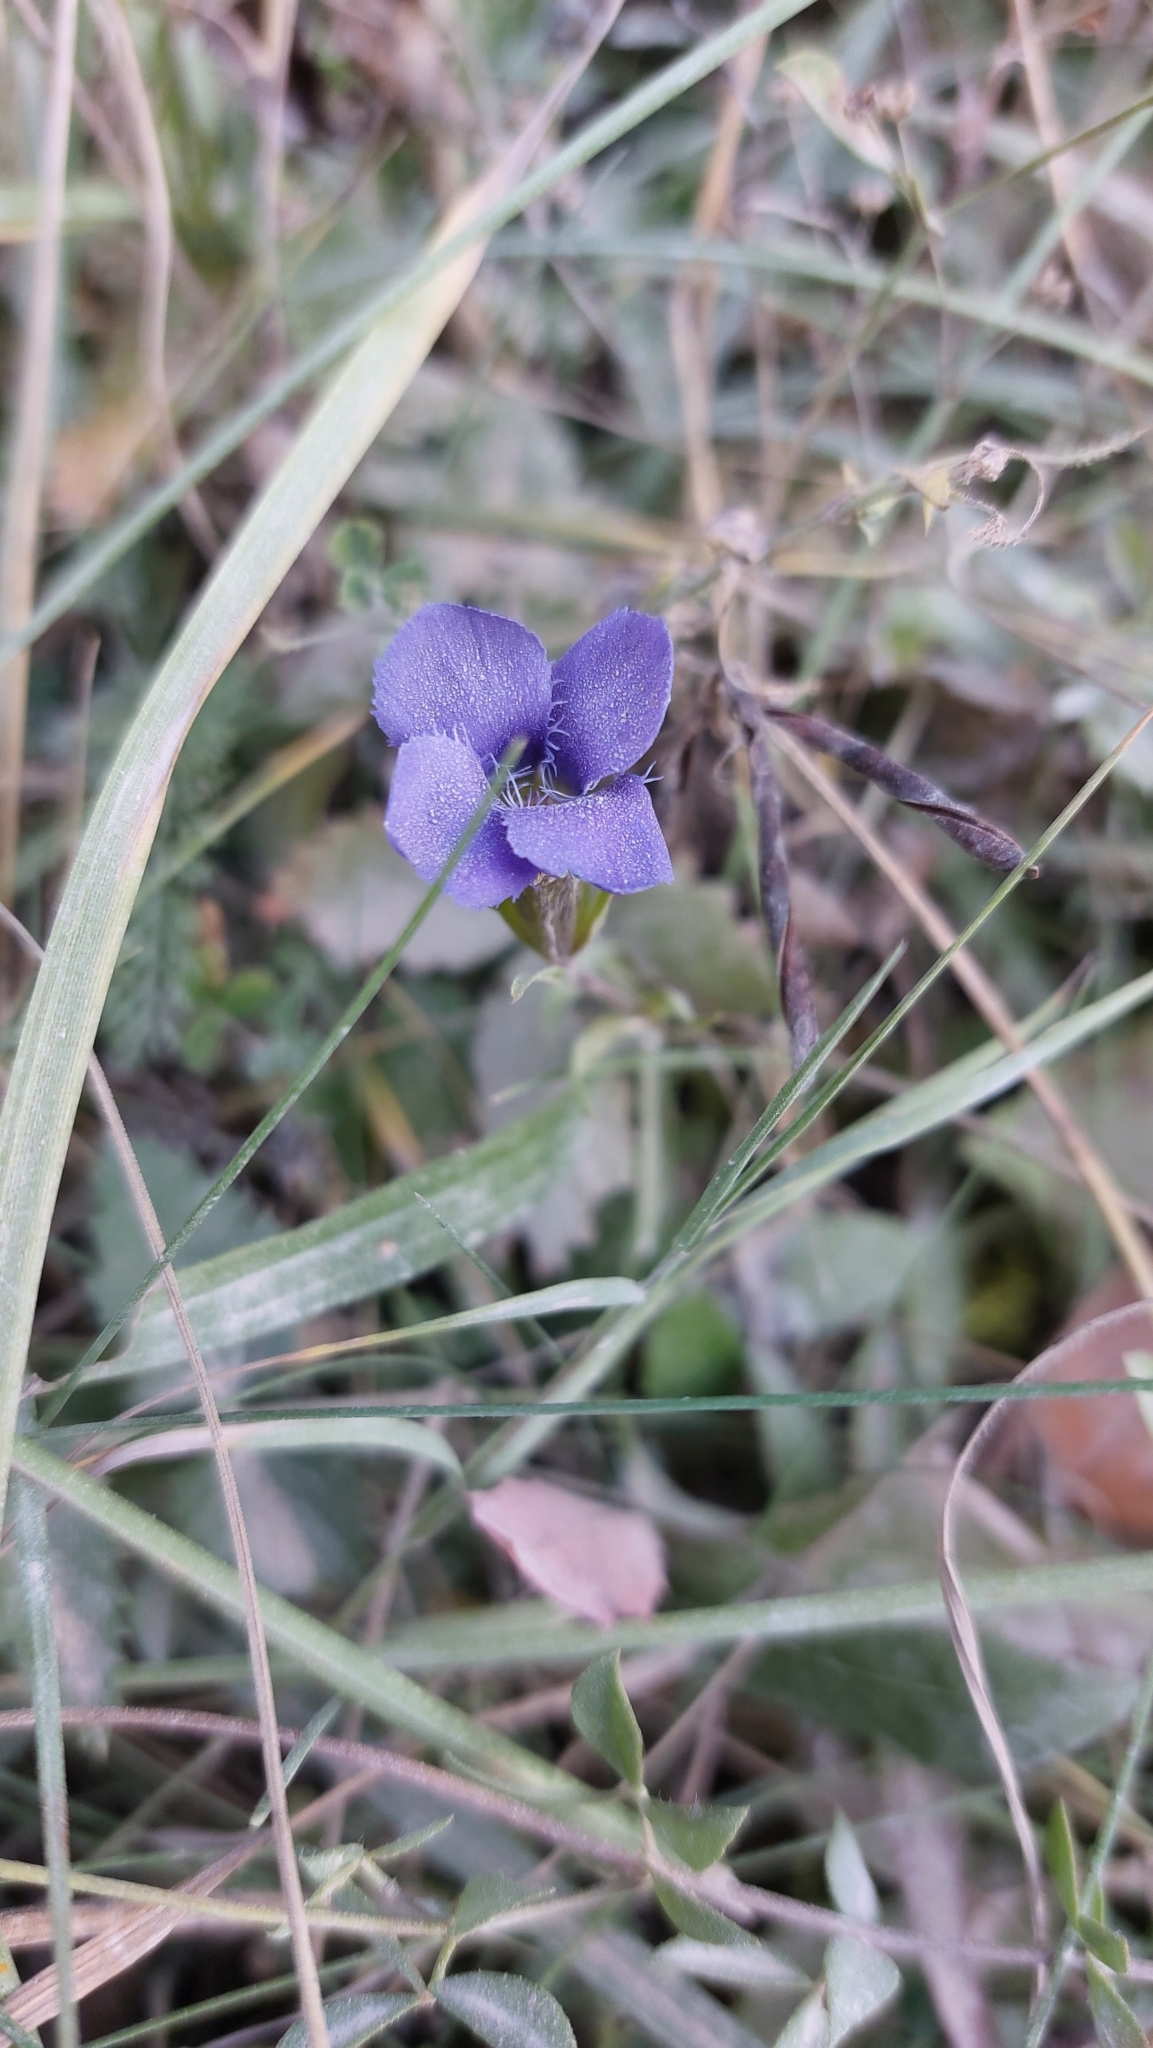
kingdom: Plantae
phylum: Tracheophyta
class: Magnoliopsida
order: Gentianales
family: Gentianaceae
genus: Gentianopsis
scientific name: Gentianopsis ciliata
